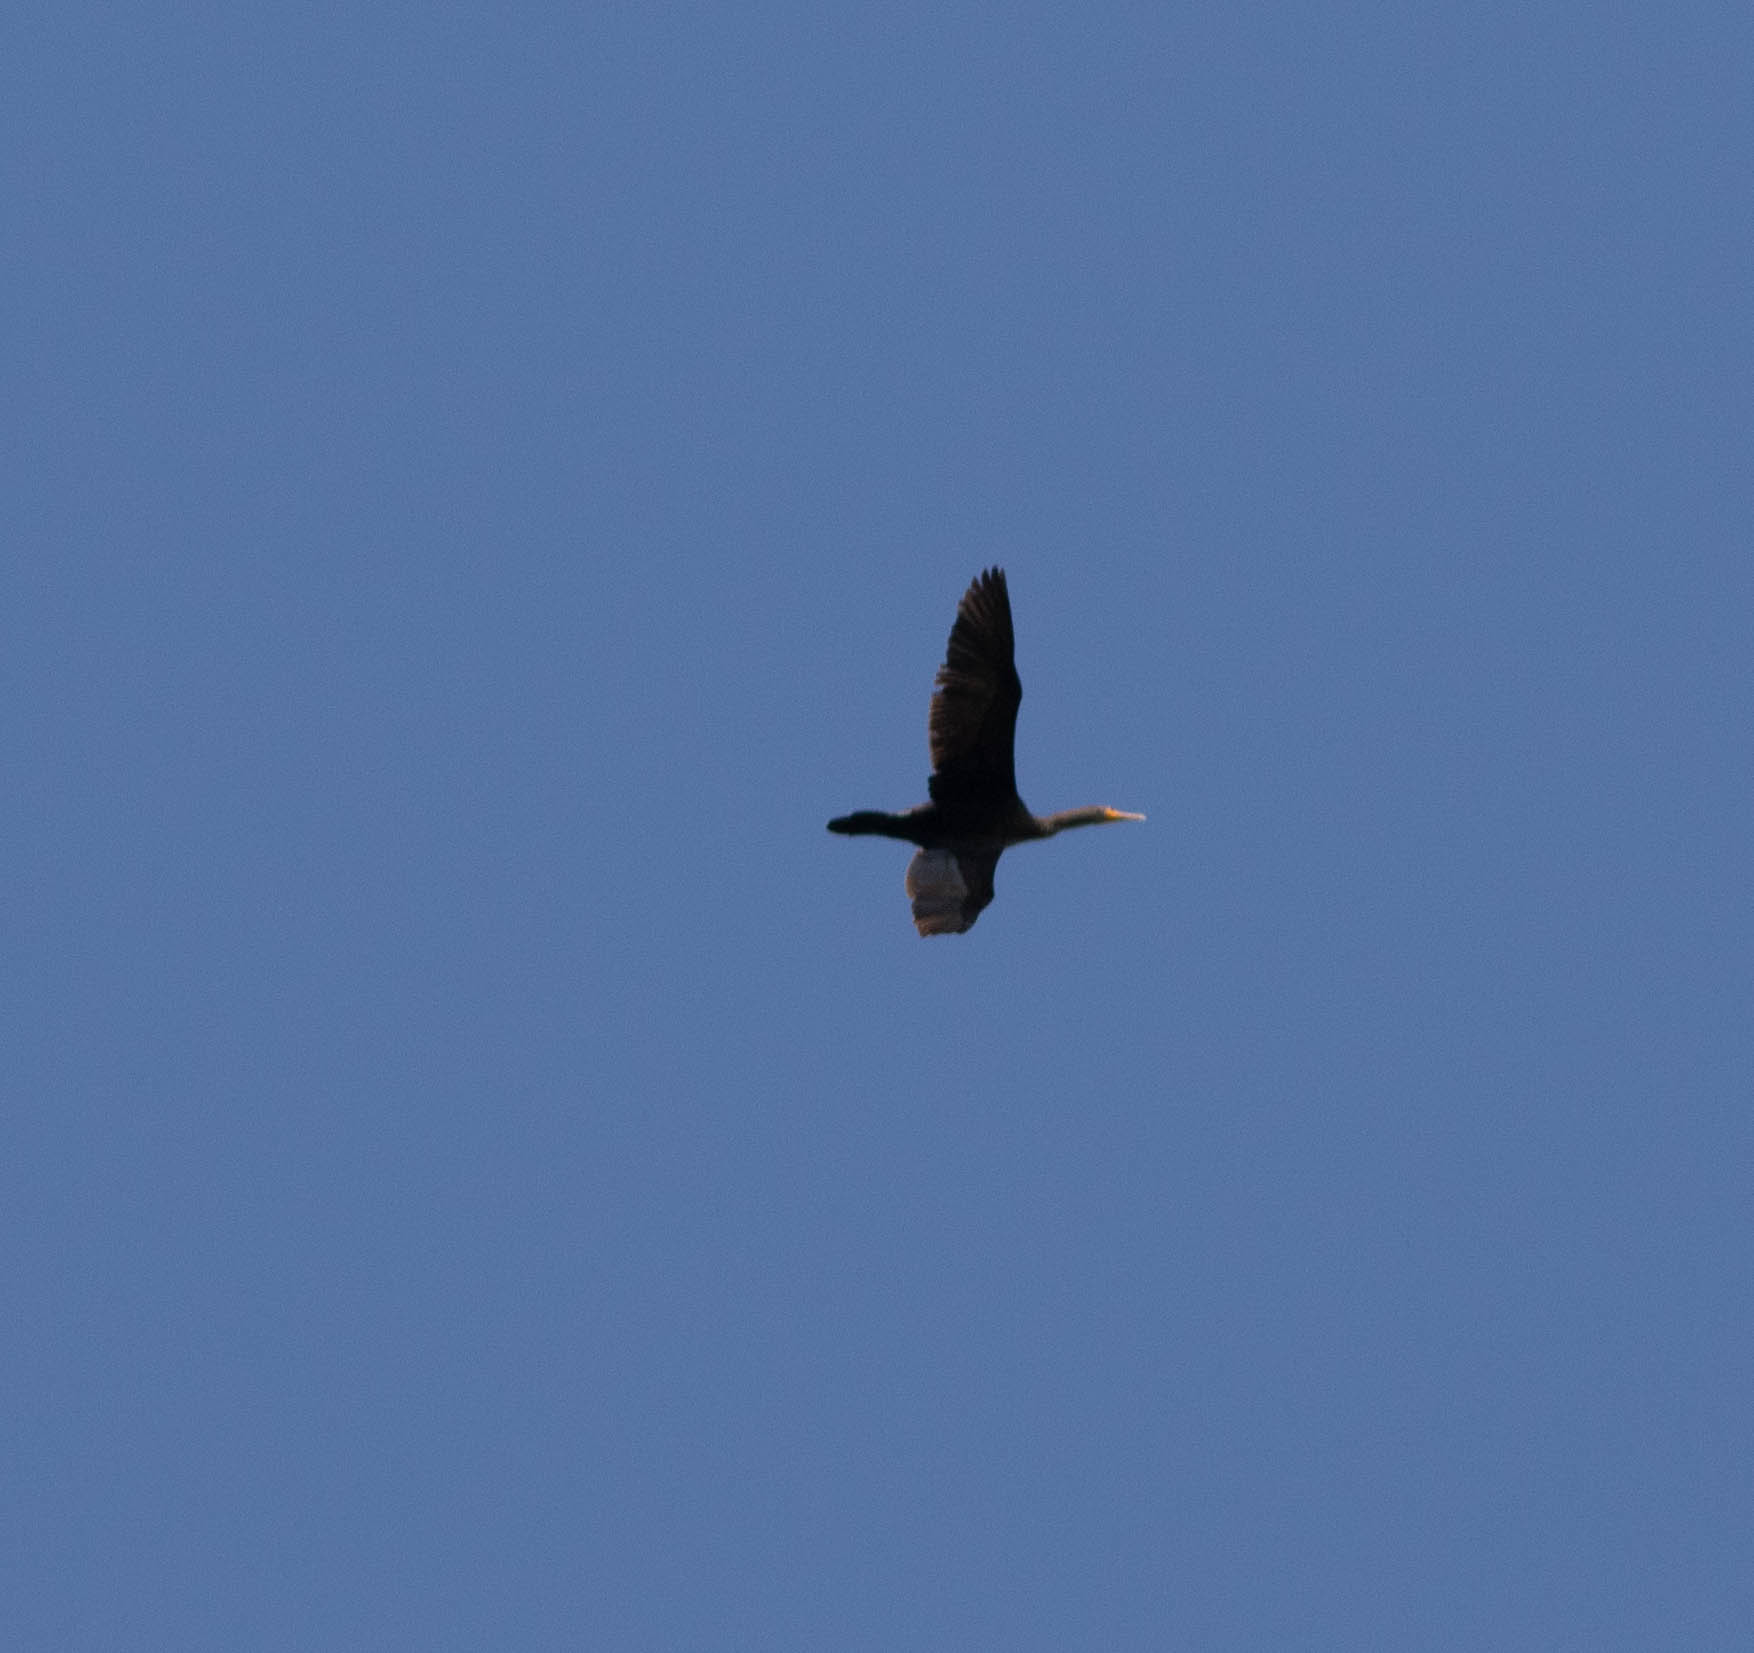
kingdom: Animalia
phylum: Chordata
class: Aves
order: Suliformes
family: Phalacrocoracidae
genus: Phalacrocorax
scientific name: Phalacrocorax auritus
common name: Double-crested cormorant
